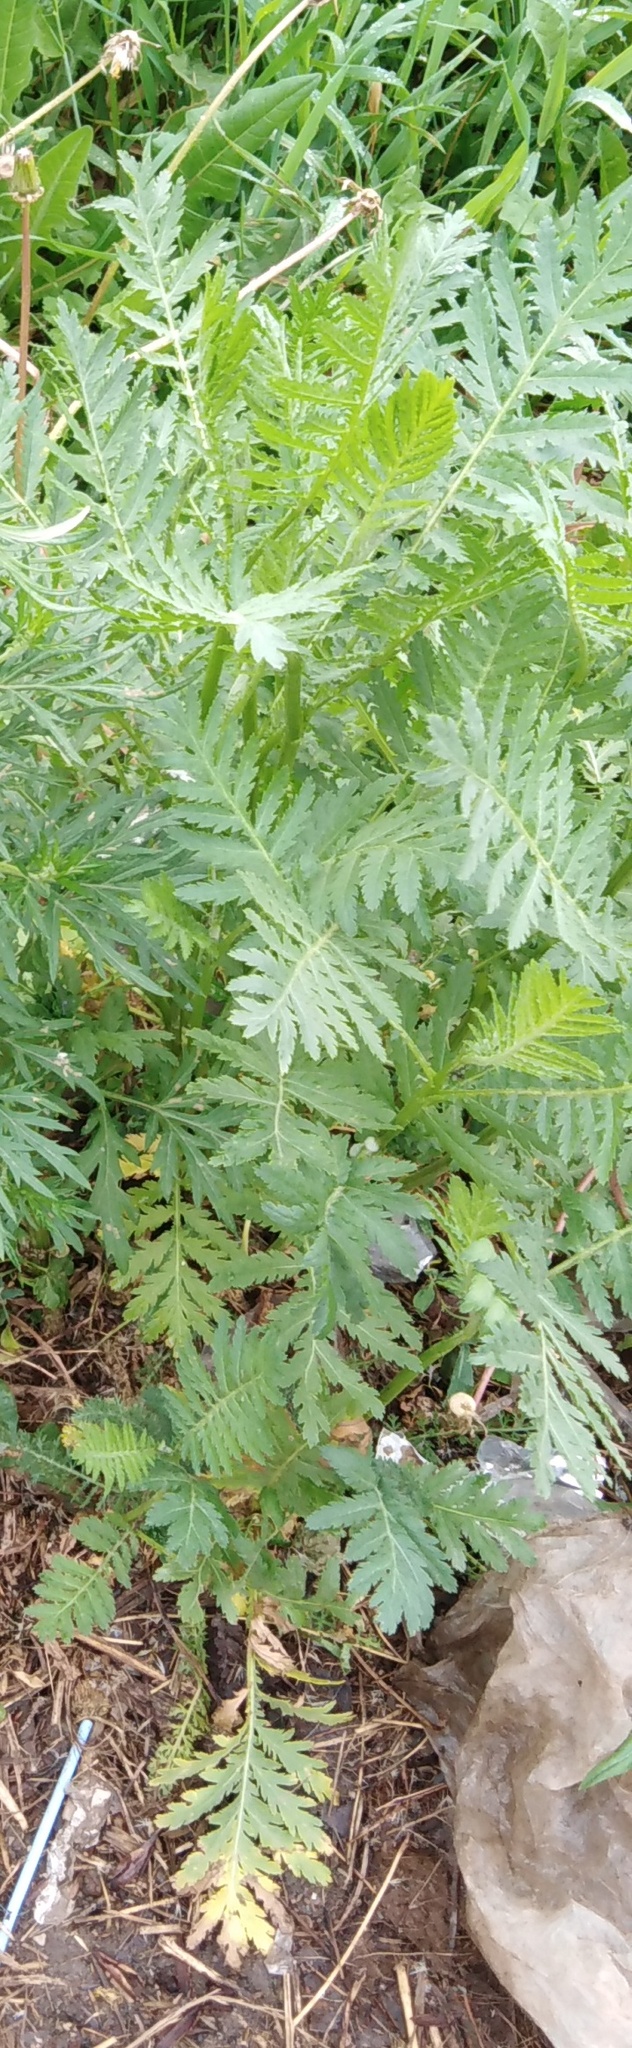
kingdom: Plantae
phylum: Tracheophyta
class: Magnoliopsida
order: Asterales
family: Asteraceae
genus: Tanacetum
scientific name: Tanacetum vulgare
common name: Common tansy
